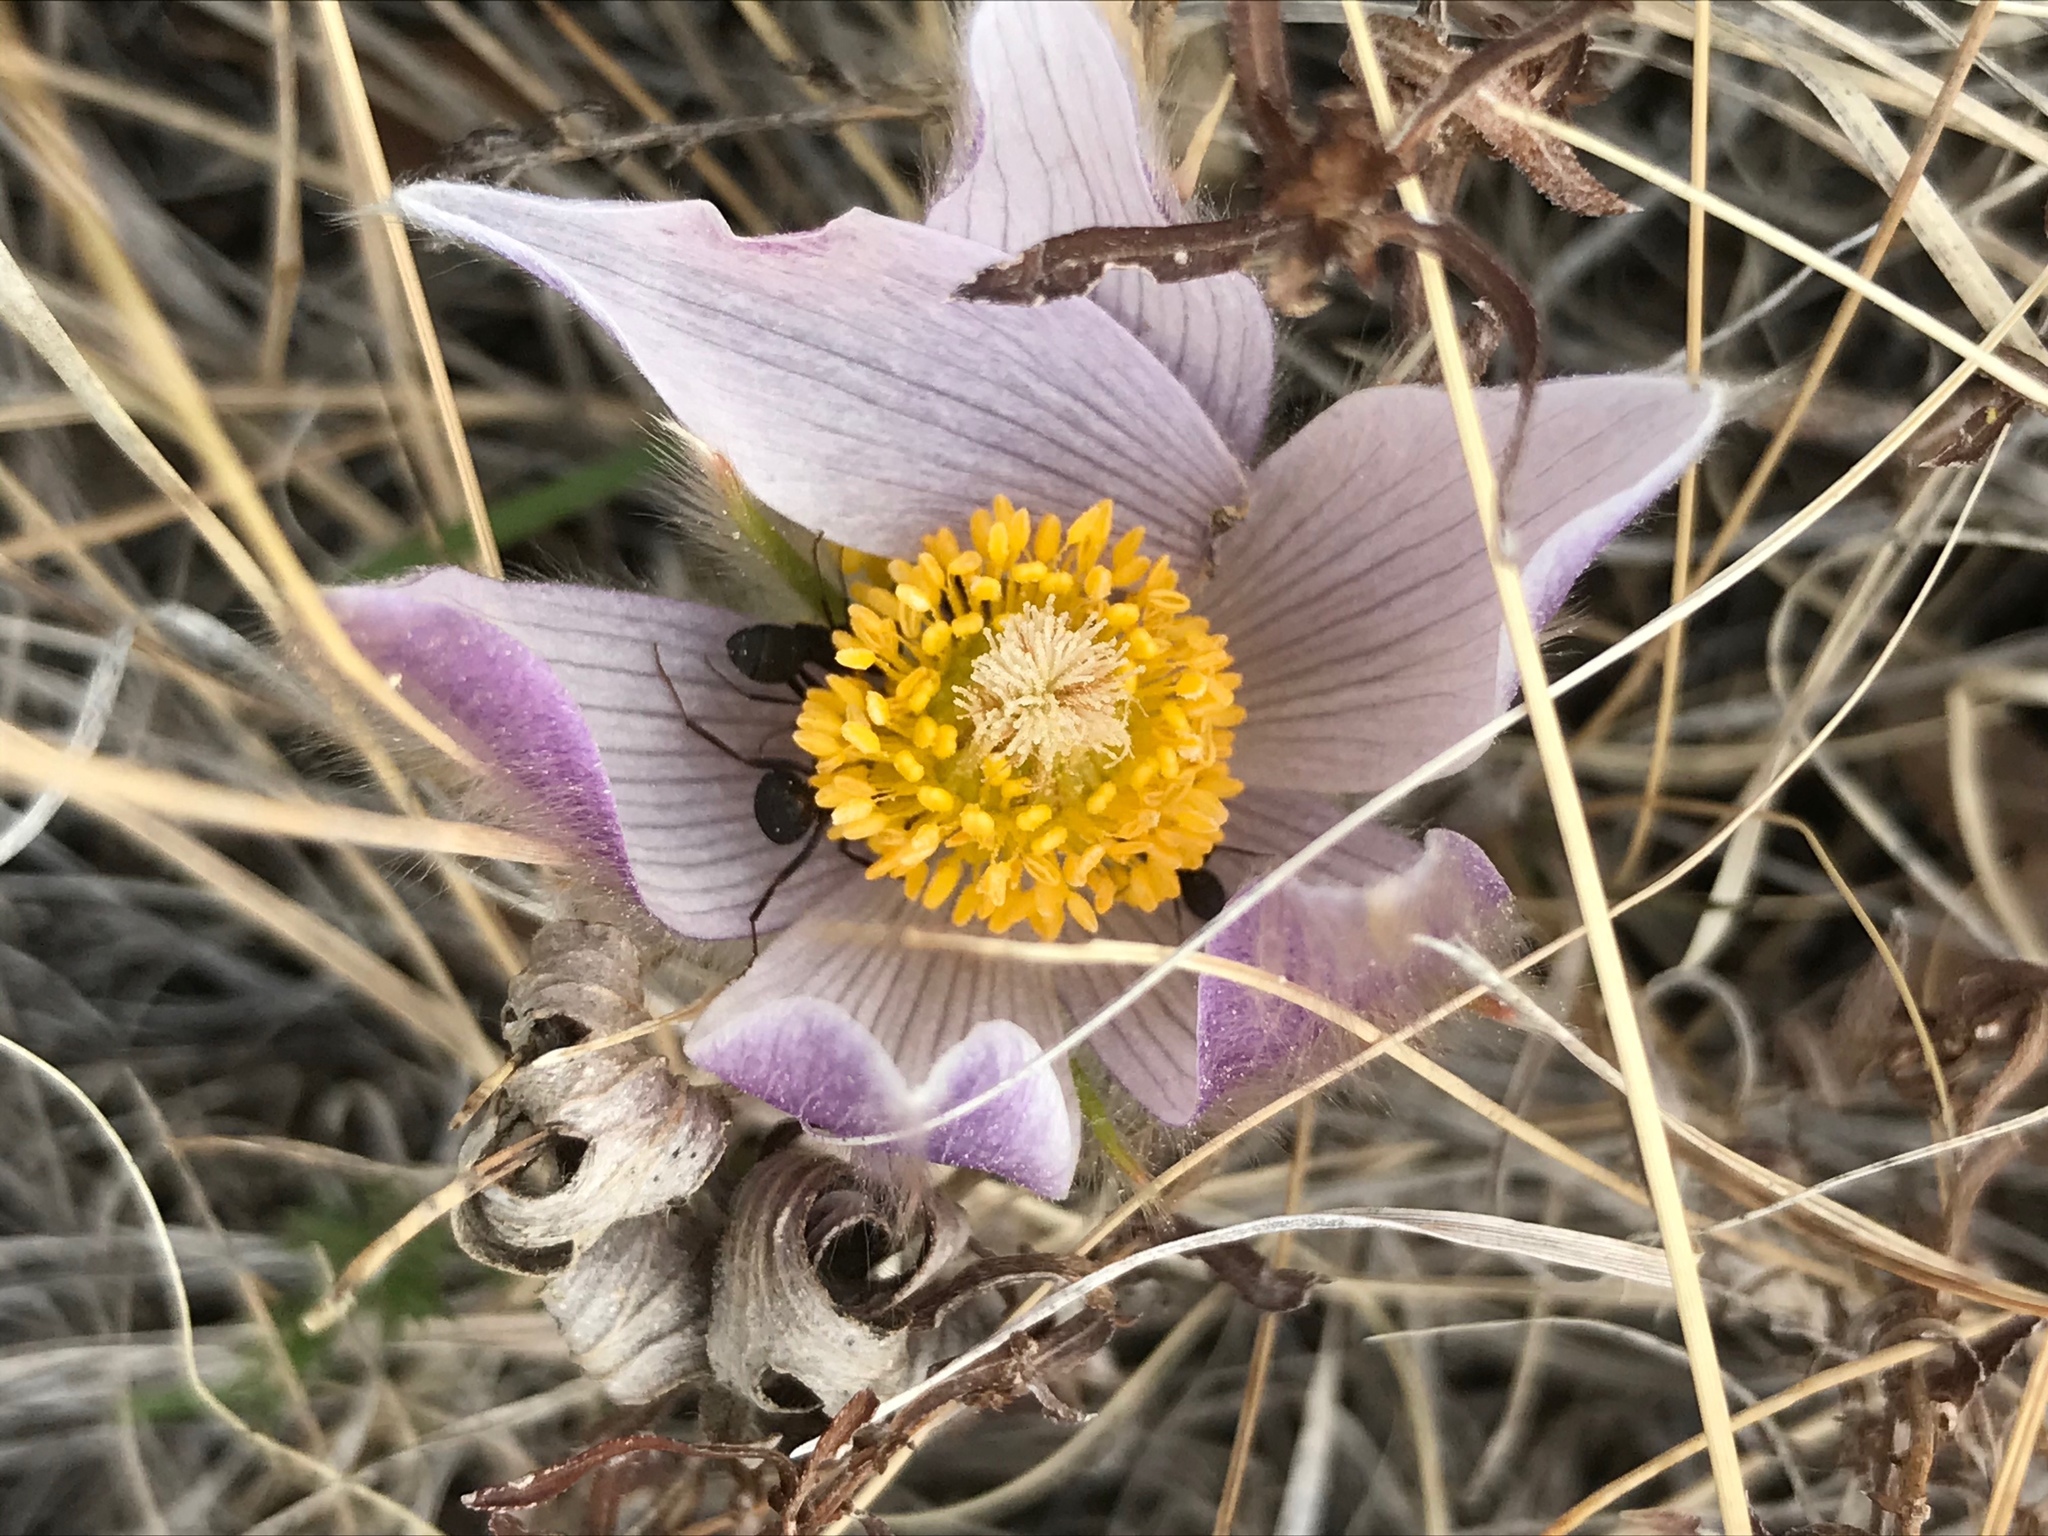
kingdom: Plantae
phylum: Tracheophyta
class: Magnoliopsida
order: Ranunculales
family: Ranunculaceae
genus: Pulsatilla
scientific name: Pulsatilla nuttalliana
